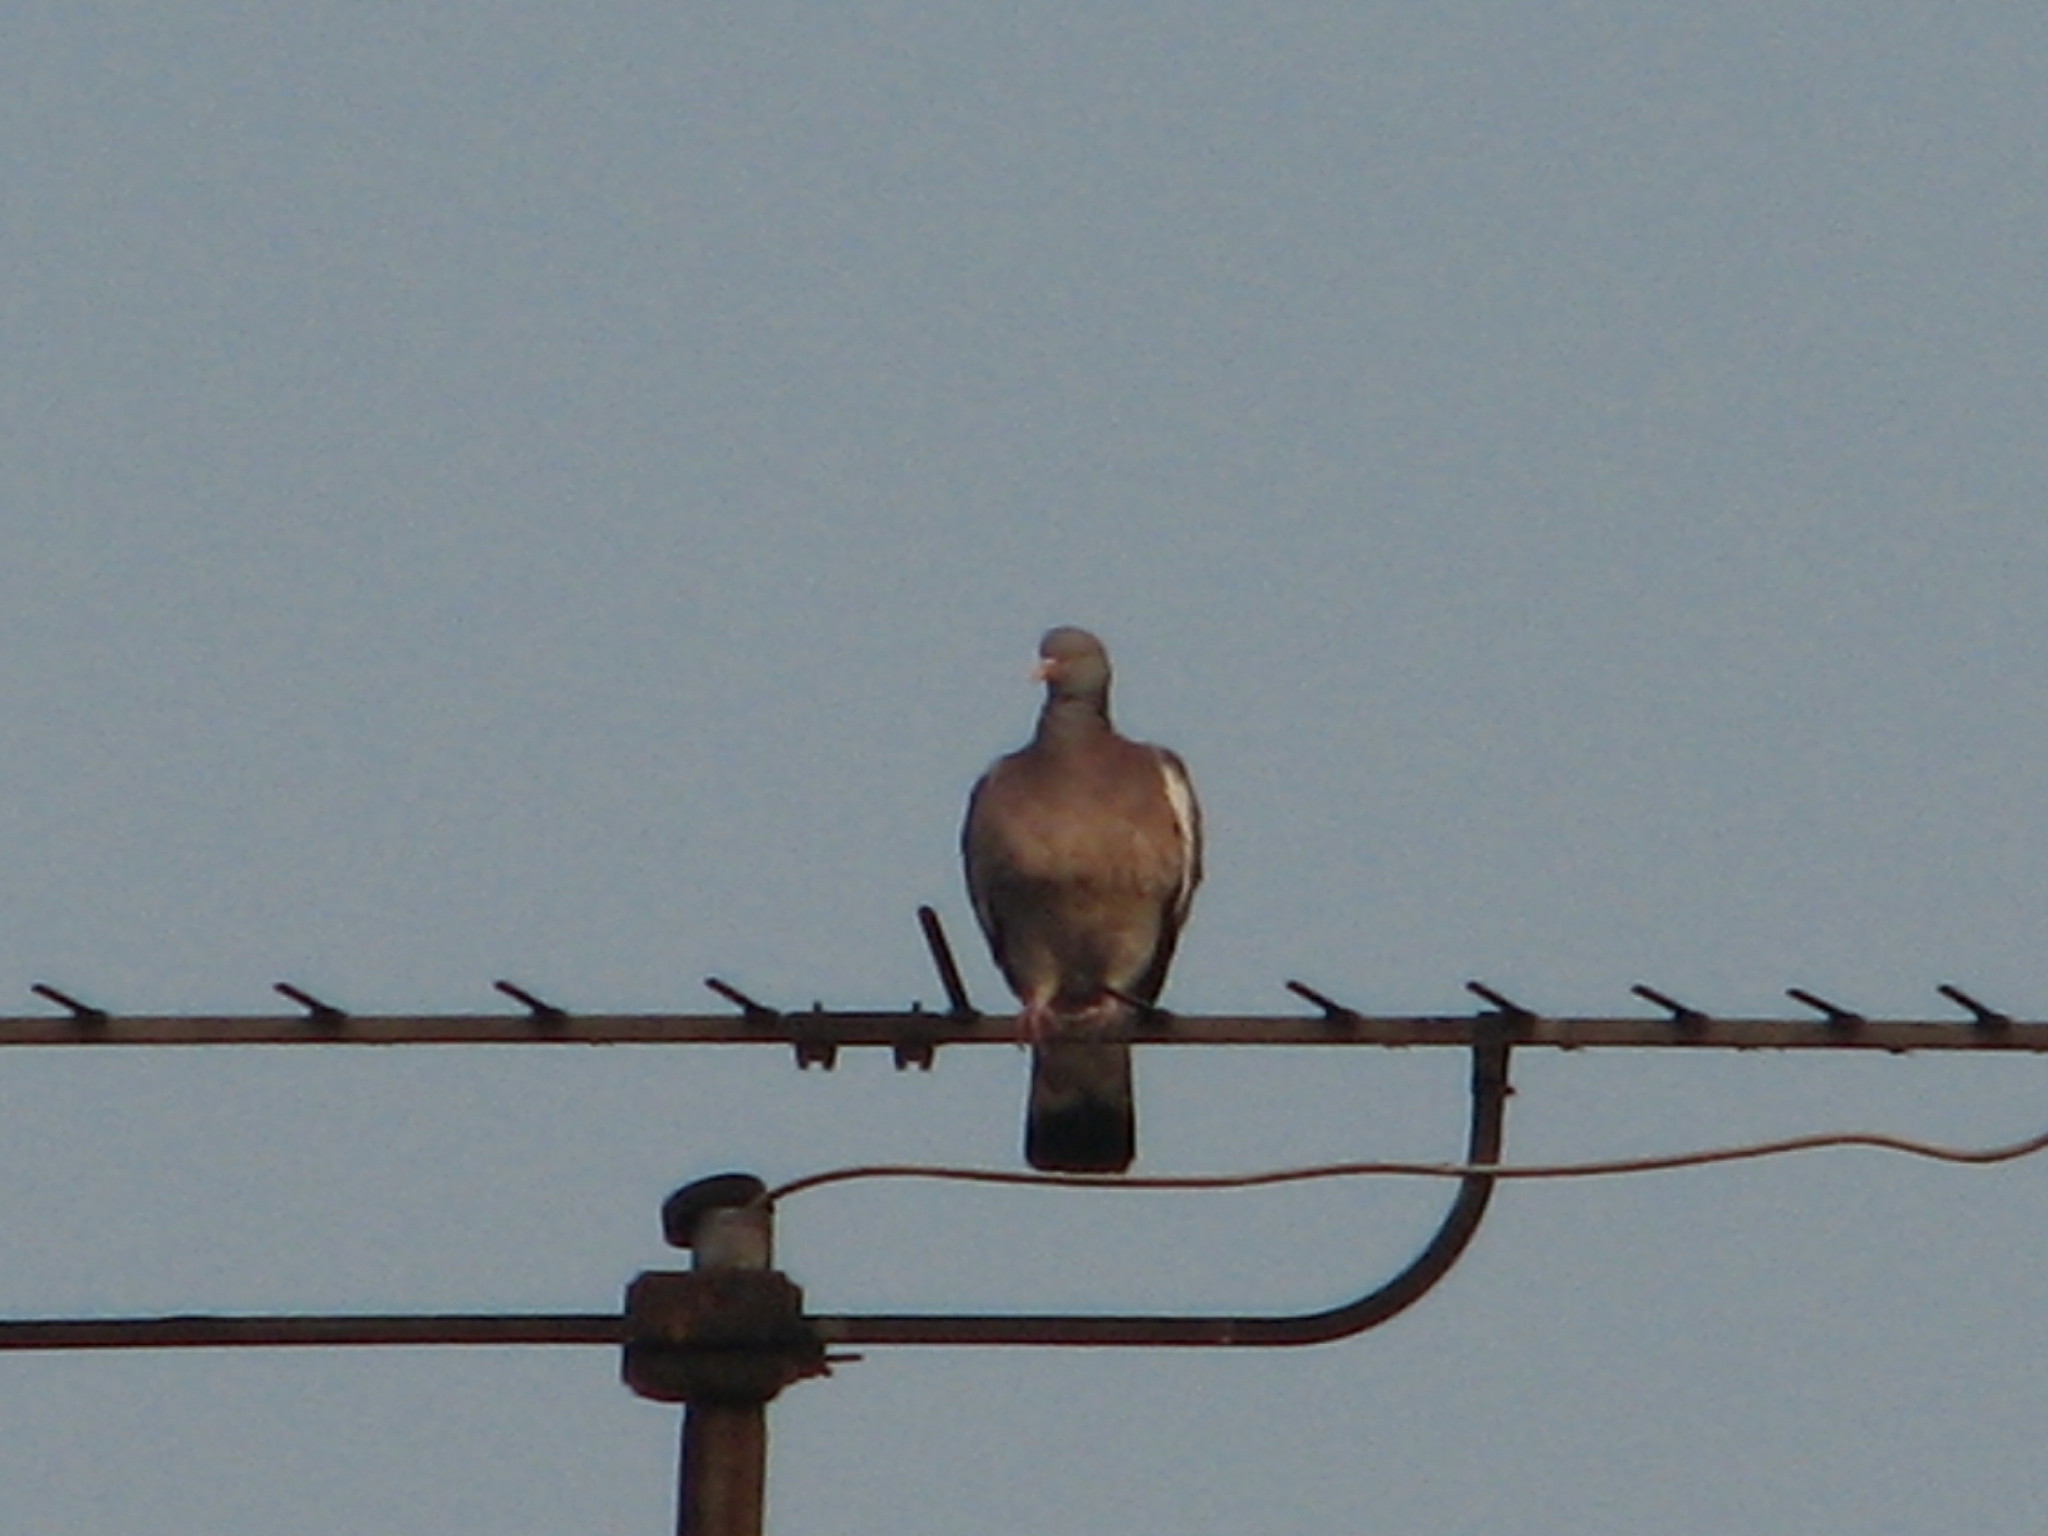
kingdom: Animalia
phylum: Chordata
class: Aves
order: Columbiformes
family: Columbidae
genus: Columba
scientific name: Columba palumbus
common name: Common wood pigeon
